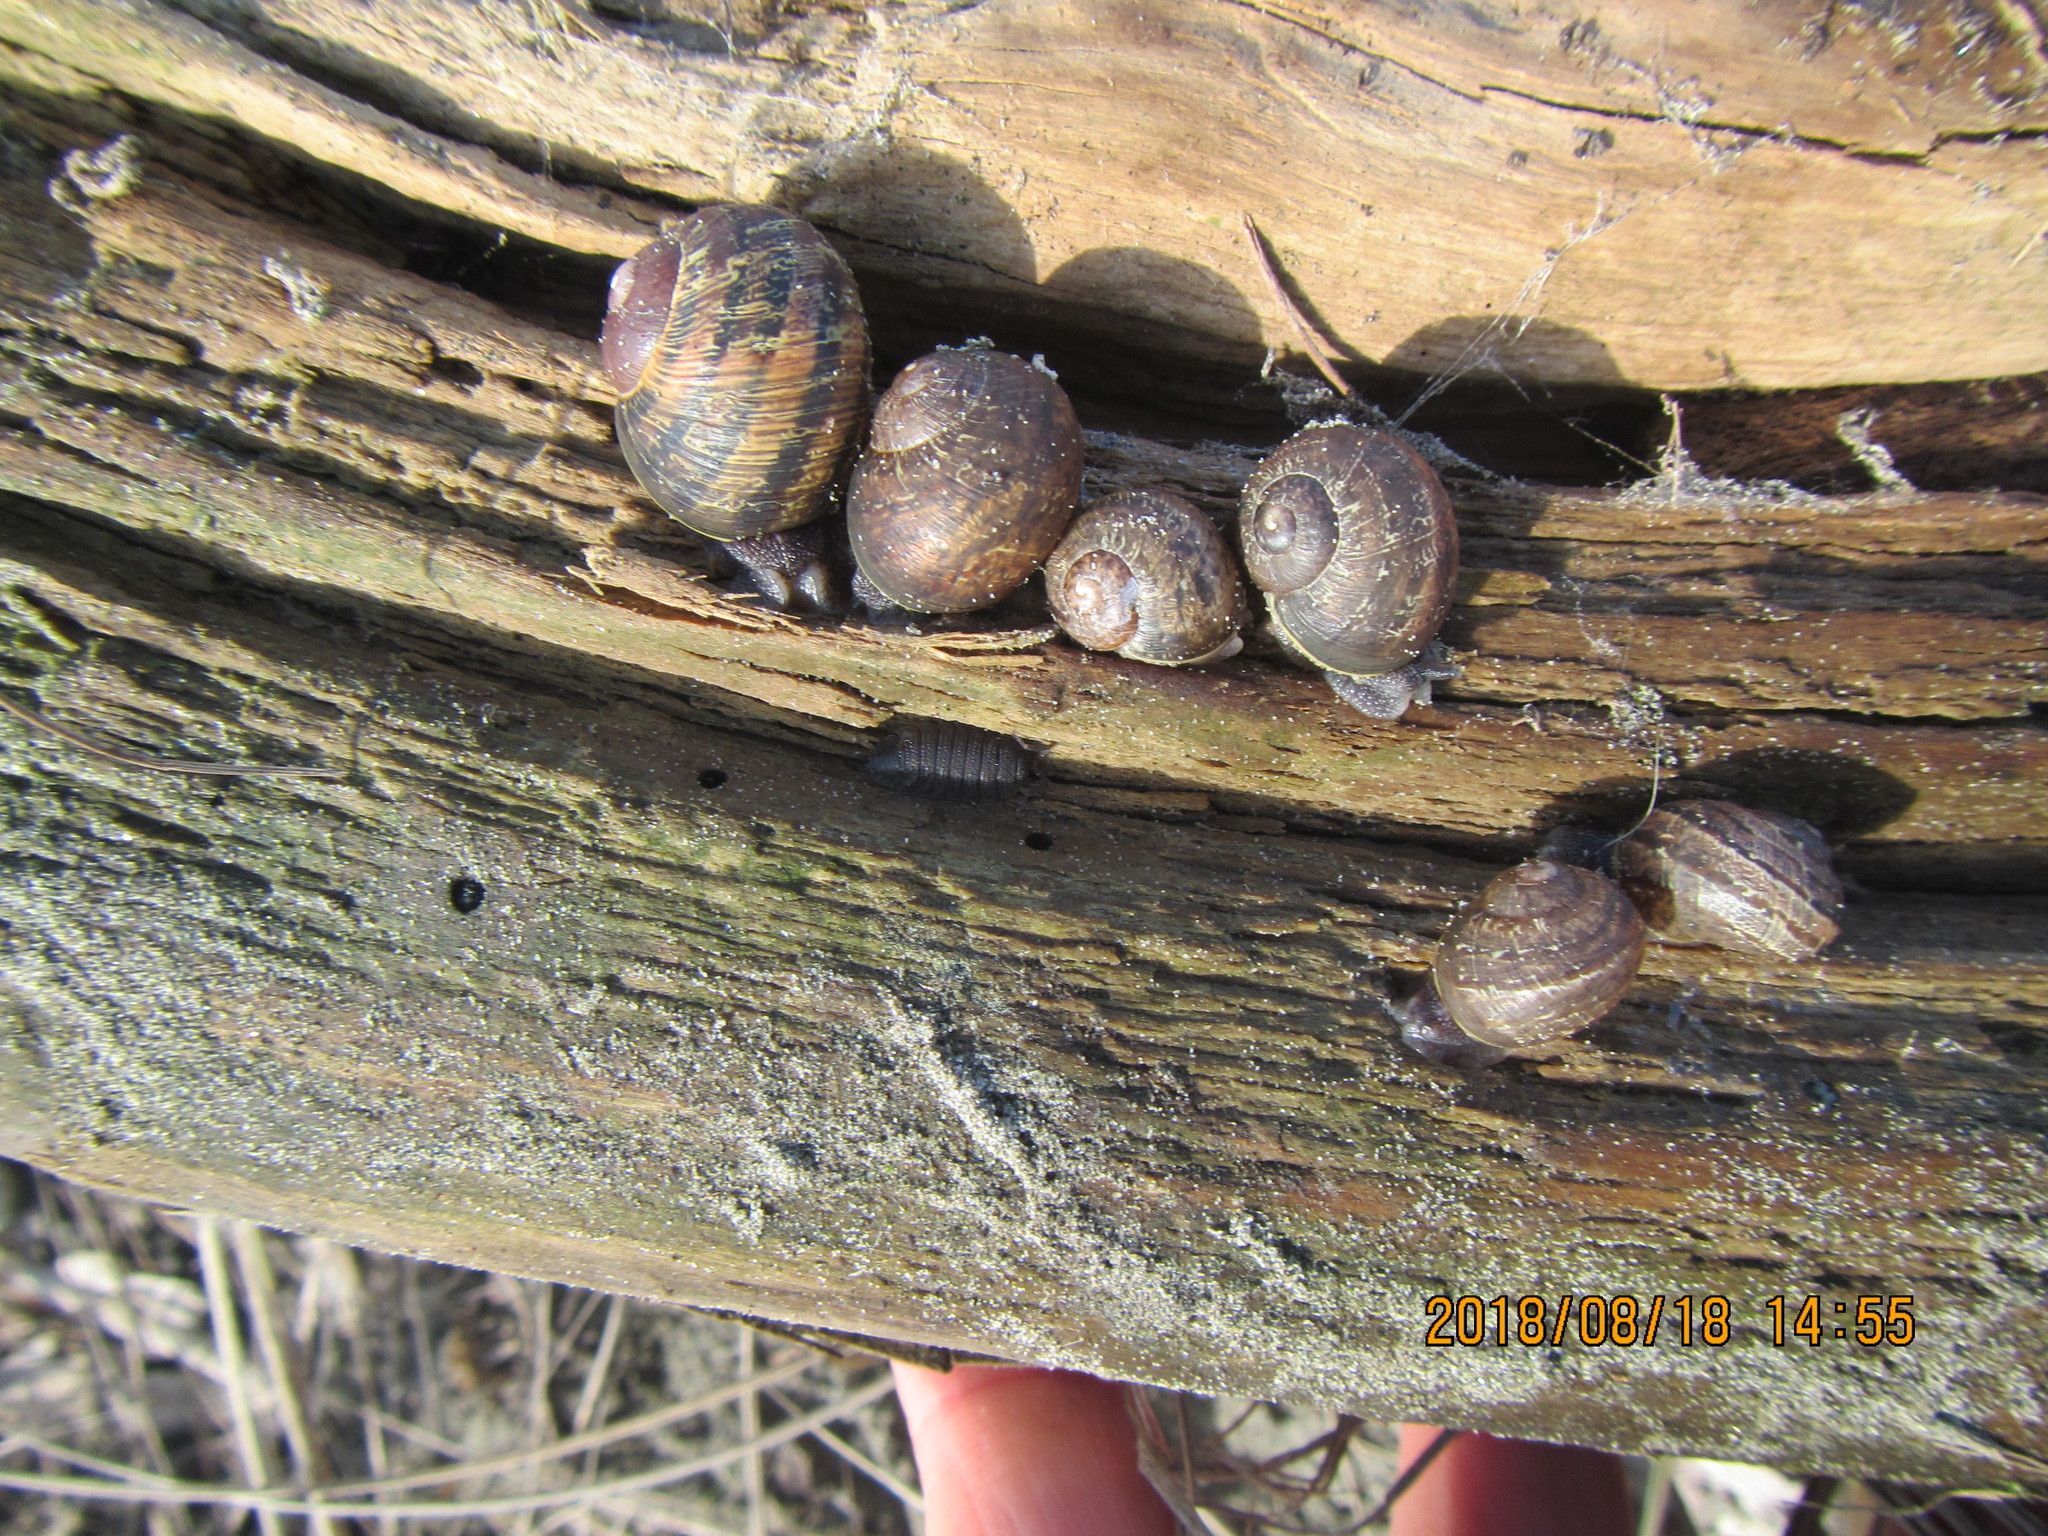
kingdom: Animalia
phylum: Mollusca
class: Gastropoda
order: Stylommatophora
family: Helicidae
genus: Cornu
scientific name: Cornu aspersum
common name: Brown garden snail
